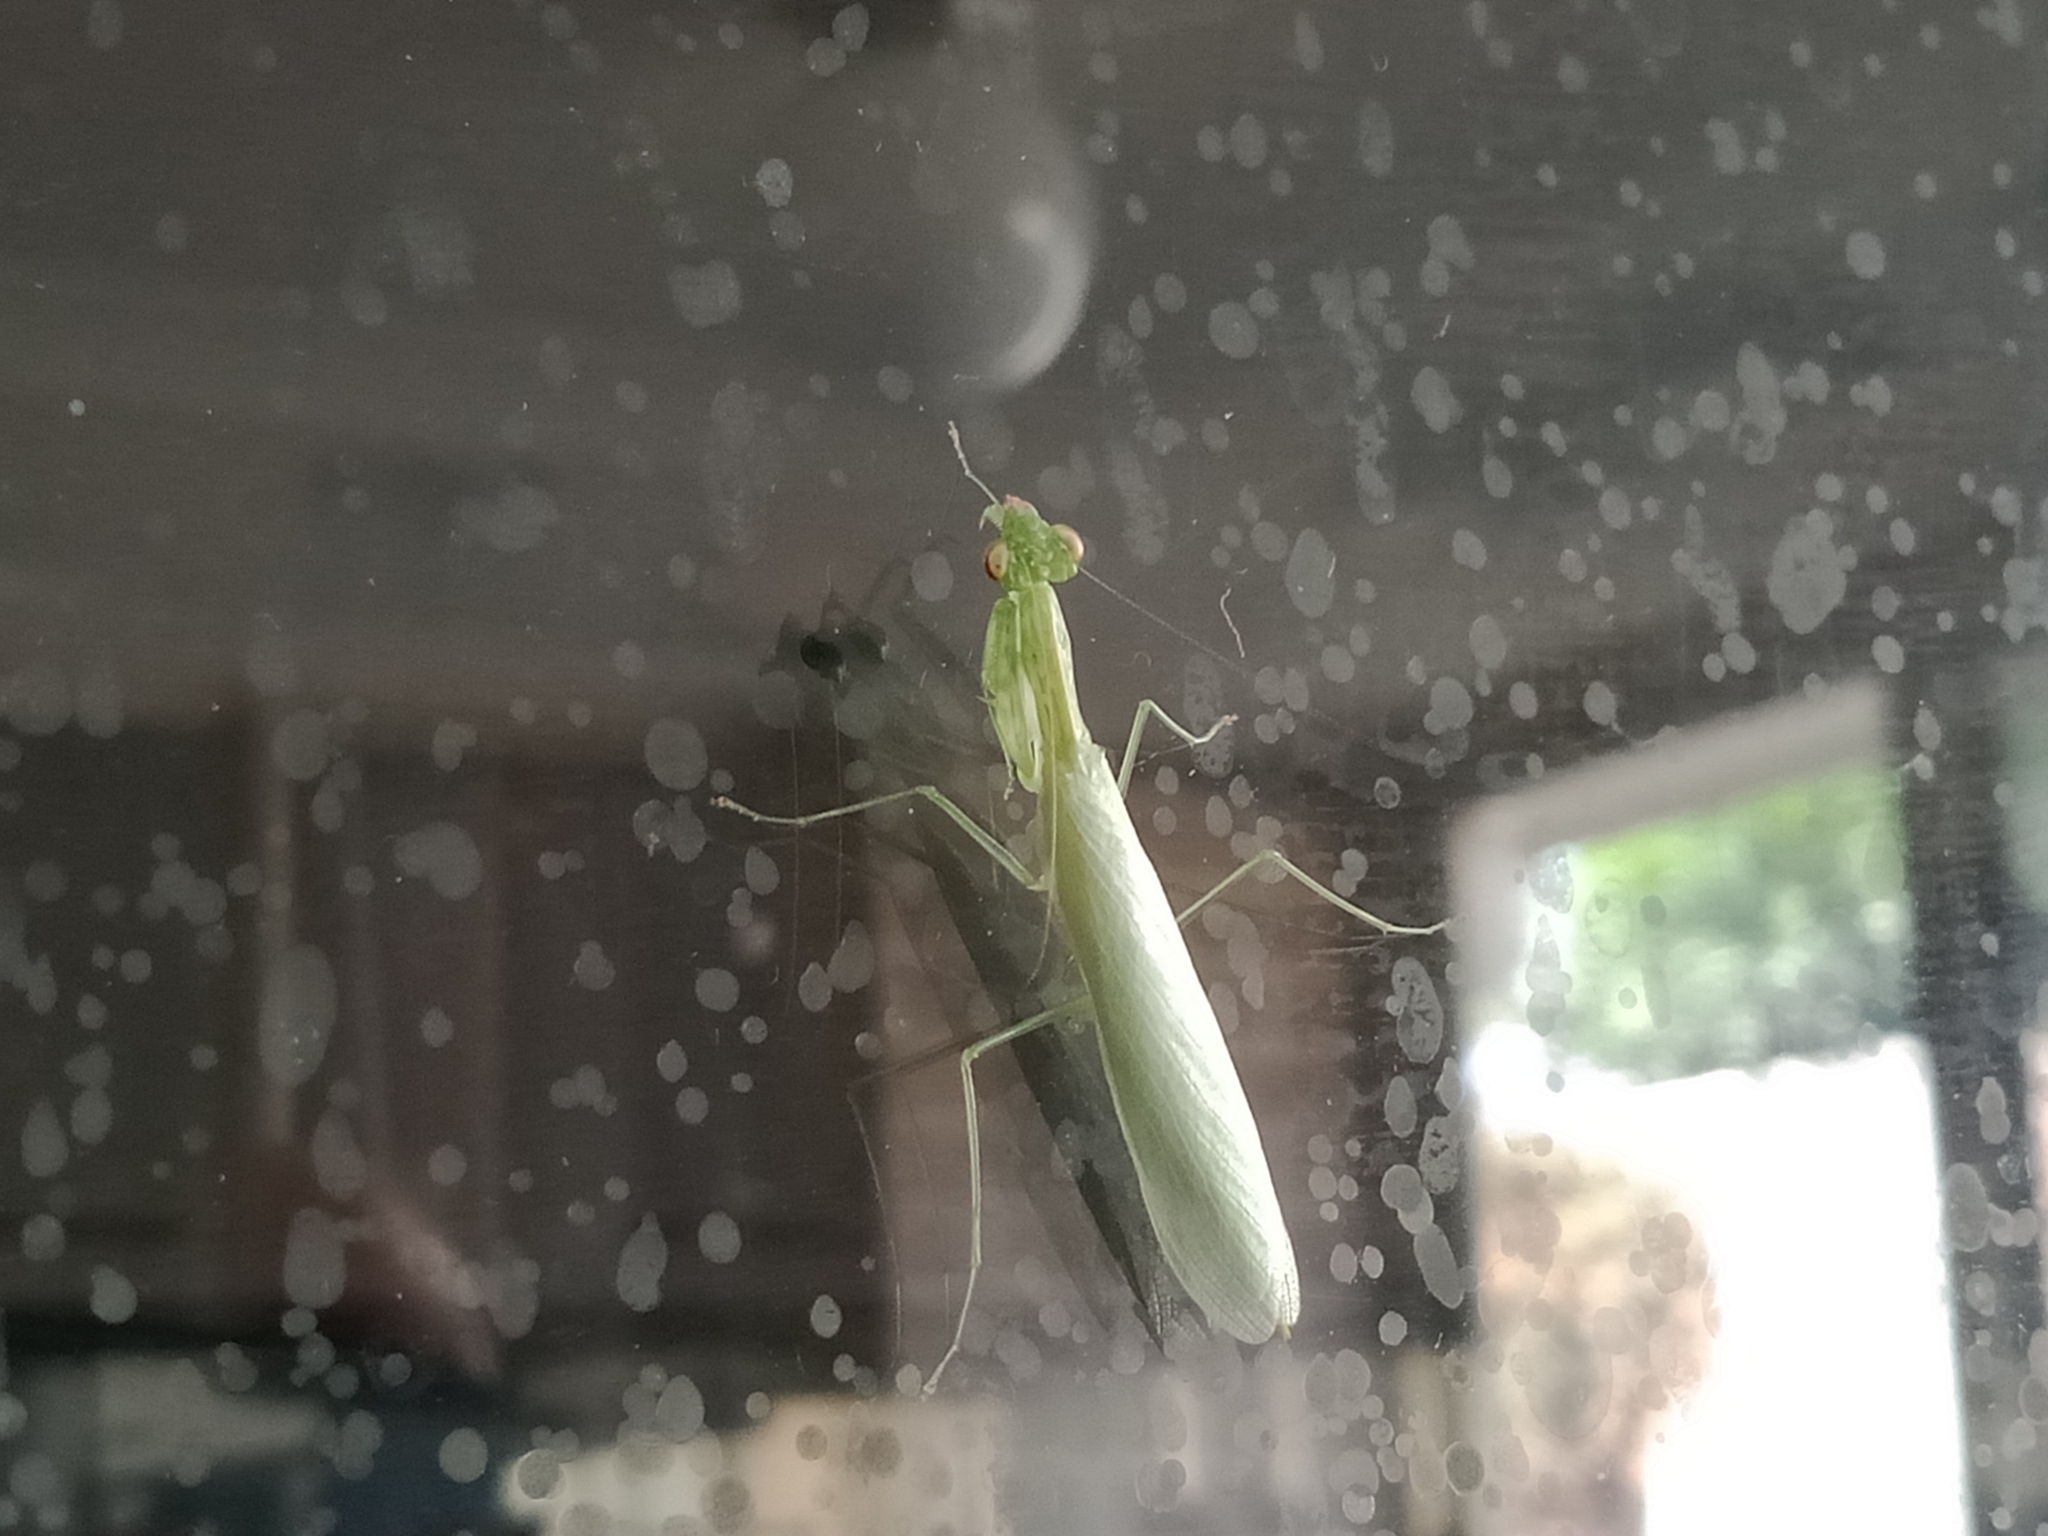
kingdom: Animalia
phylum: Arthropoda
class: Insecta
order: Mantodea
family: Nanomantidae
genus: Kongobatha
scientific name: Kongobatha diademata
